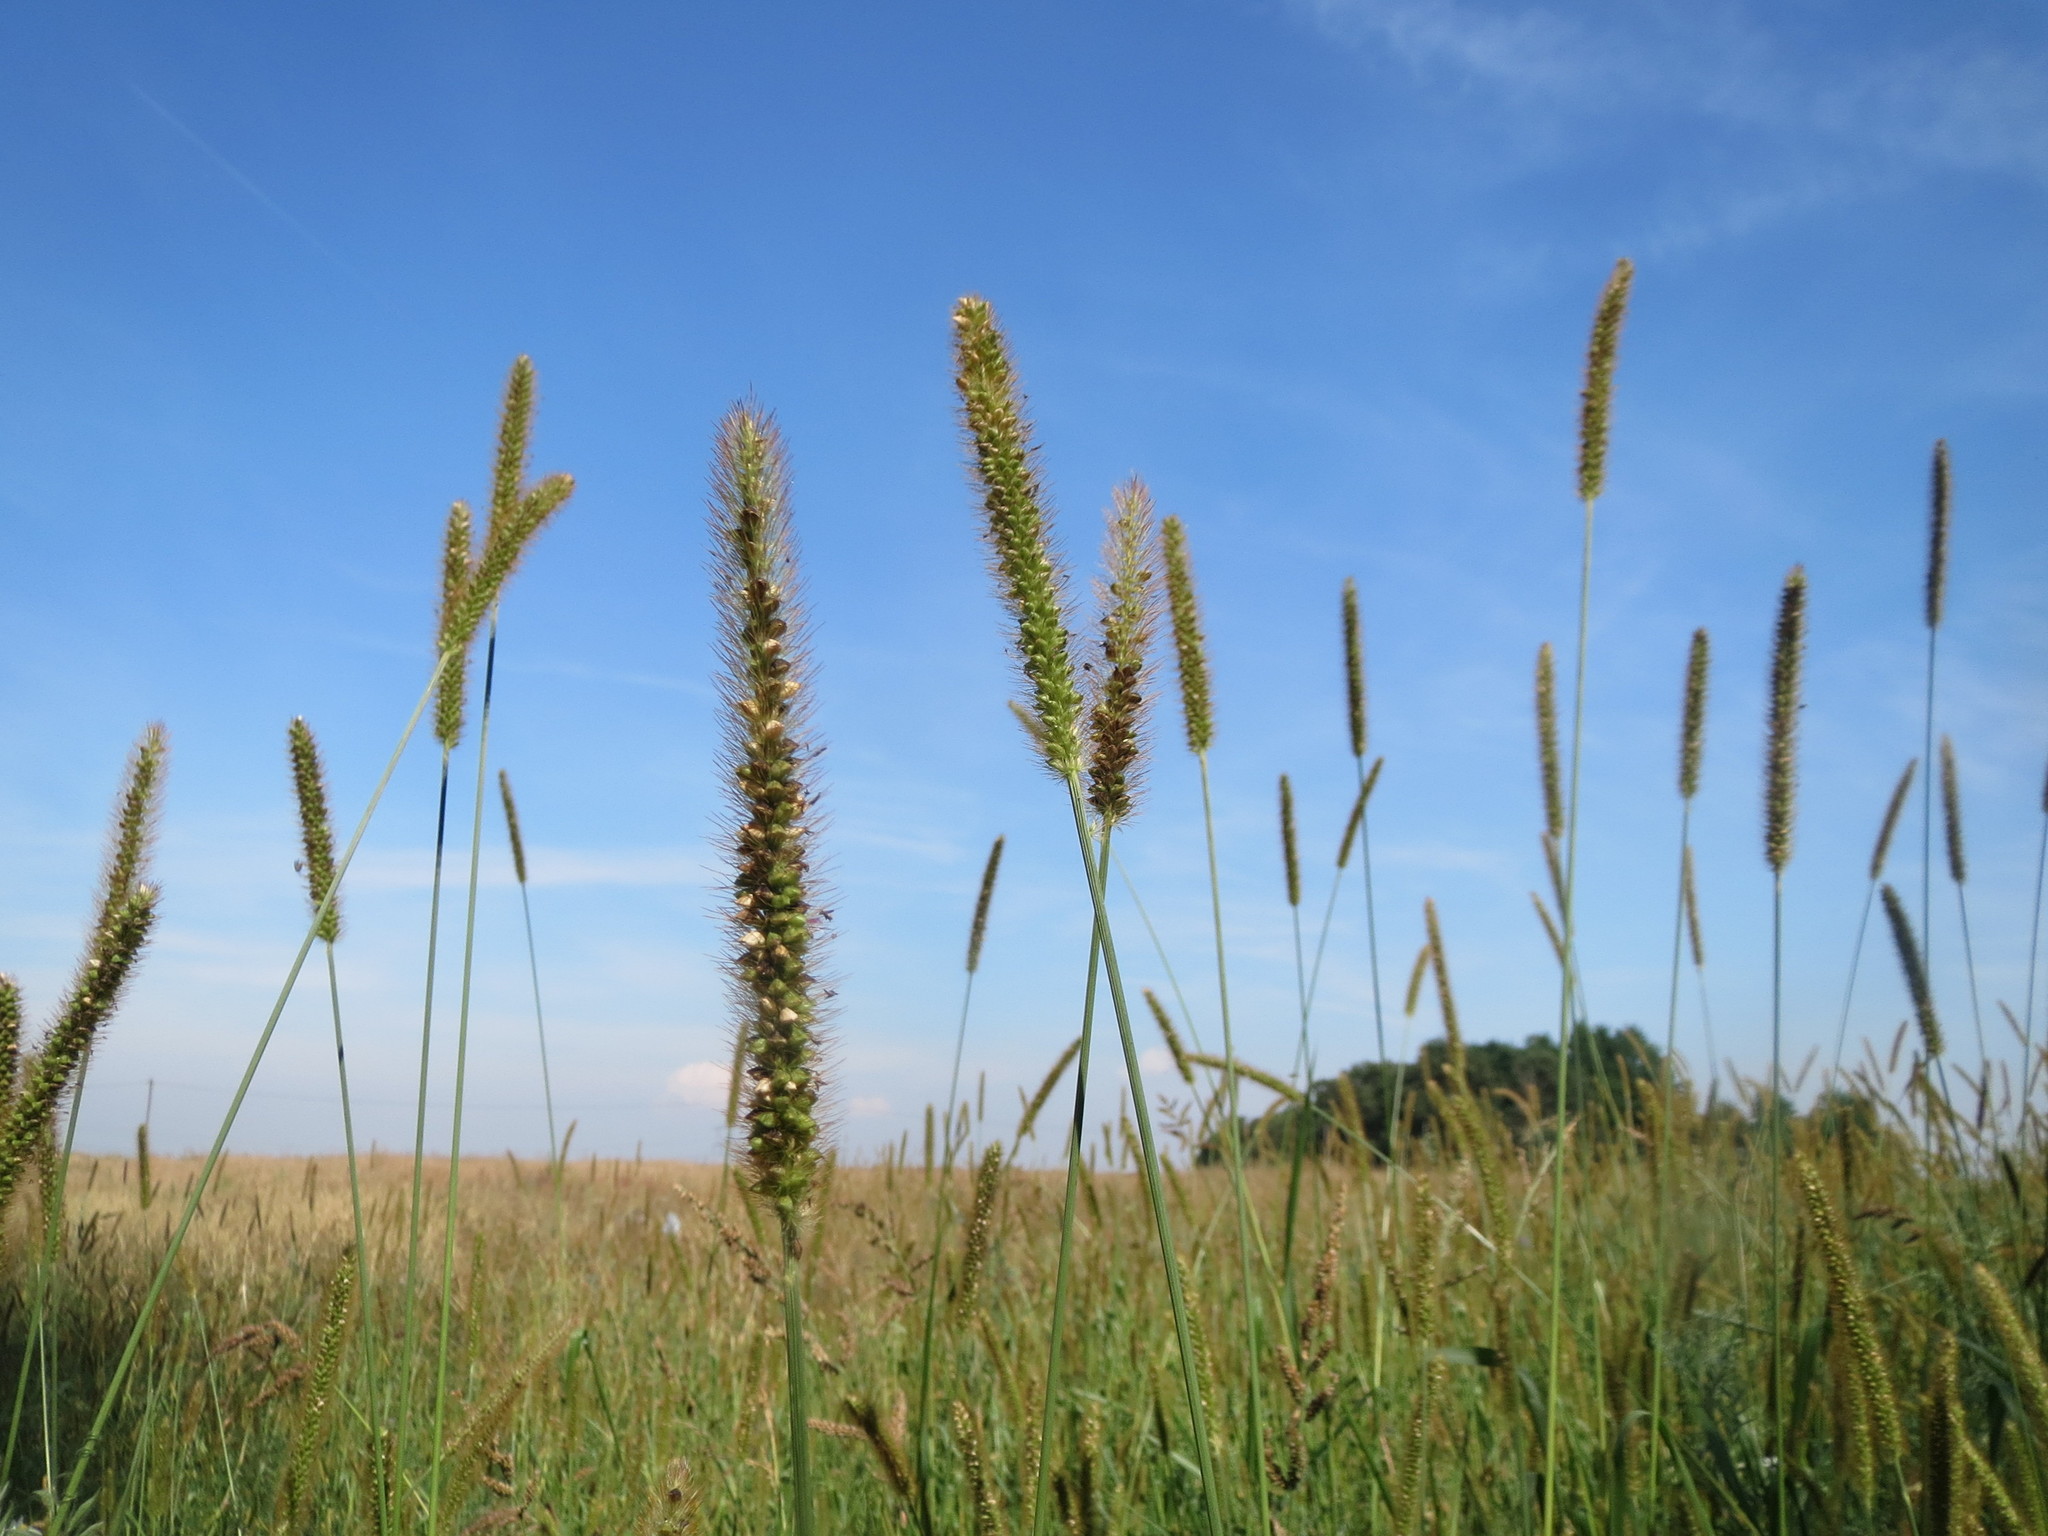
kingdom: Plantae
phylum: Tracheophyta
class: Liliopsida
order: Poales
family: Poaceae
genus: Setaria
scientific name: Setaria pumila
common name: Yellow bristle-grass
